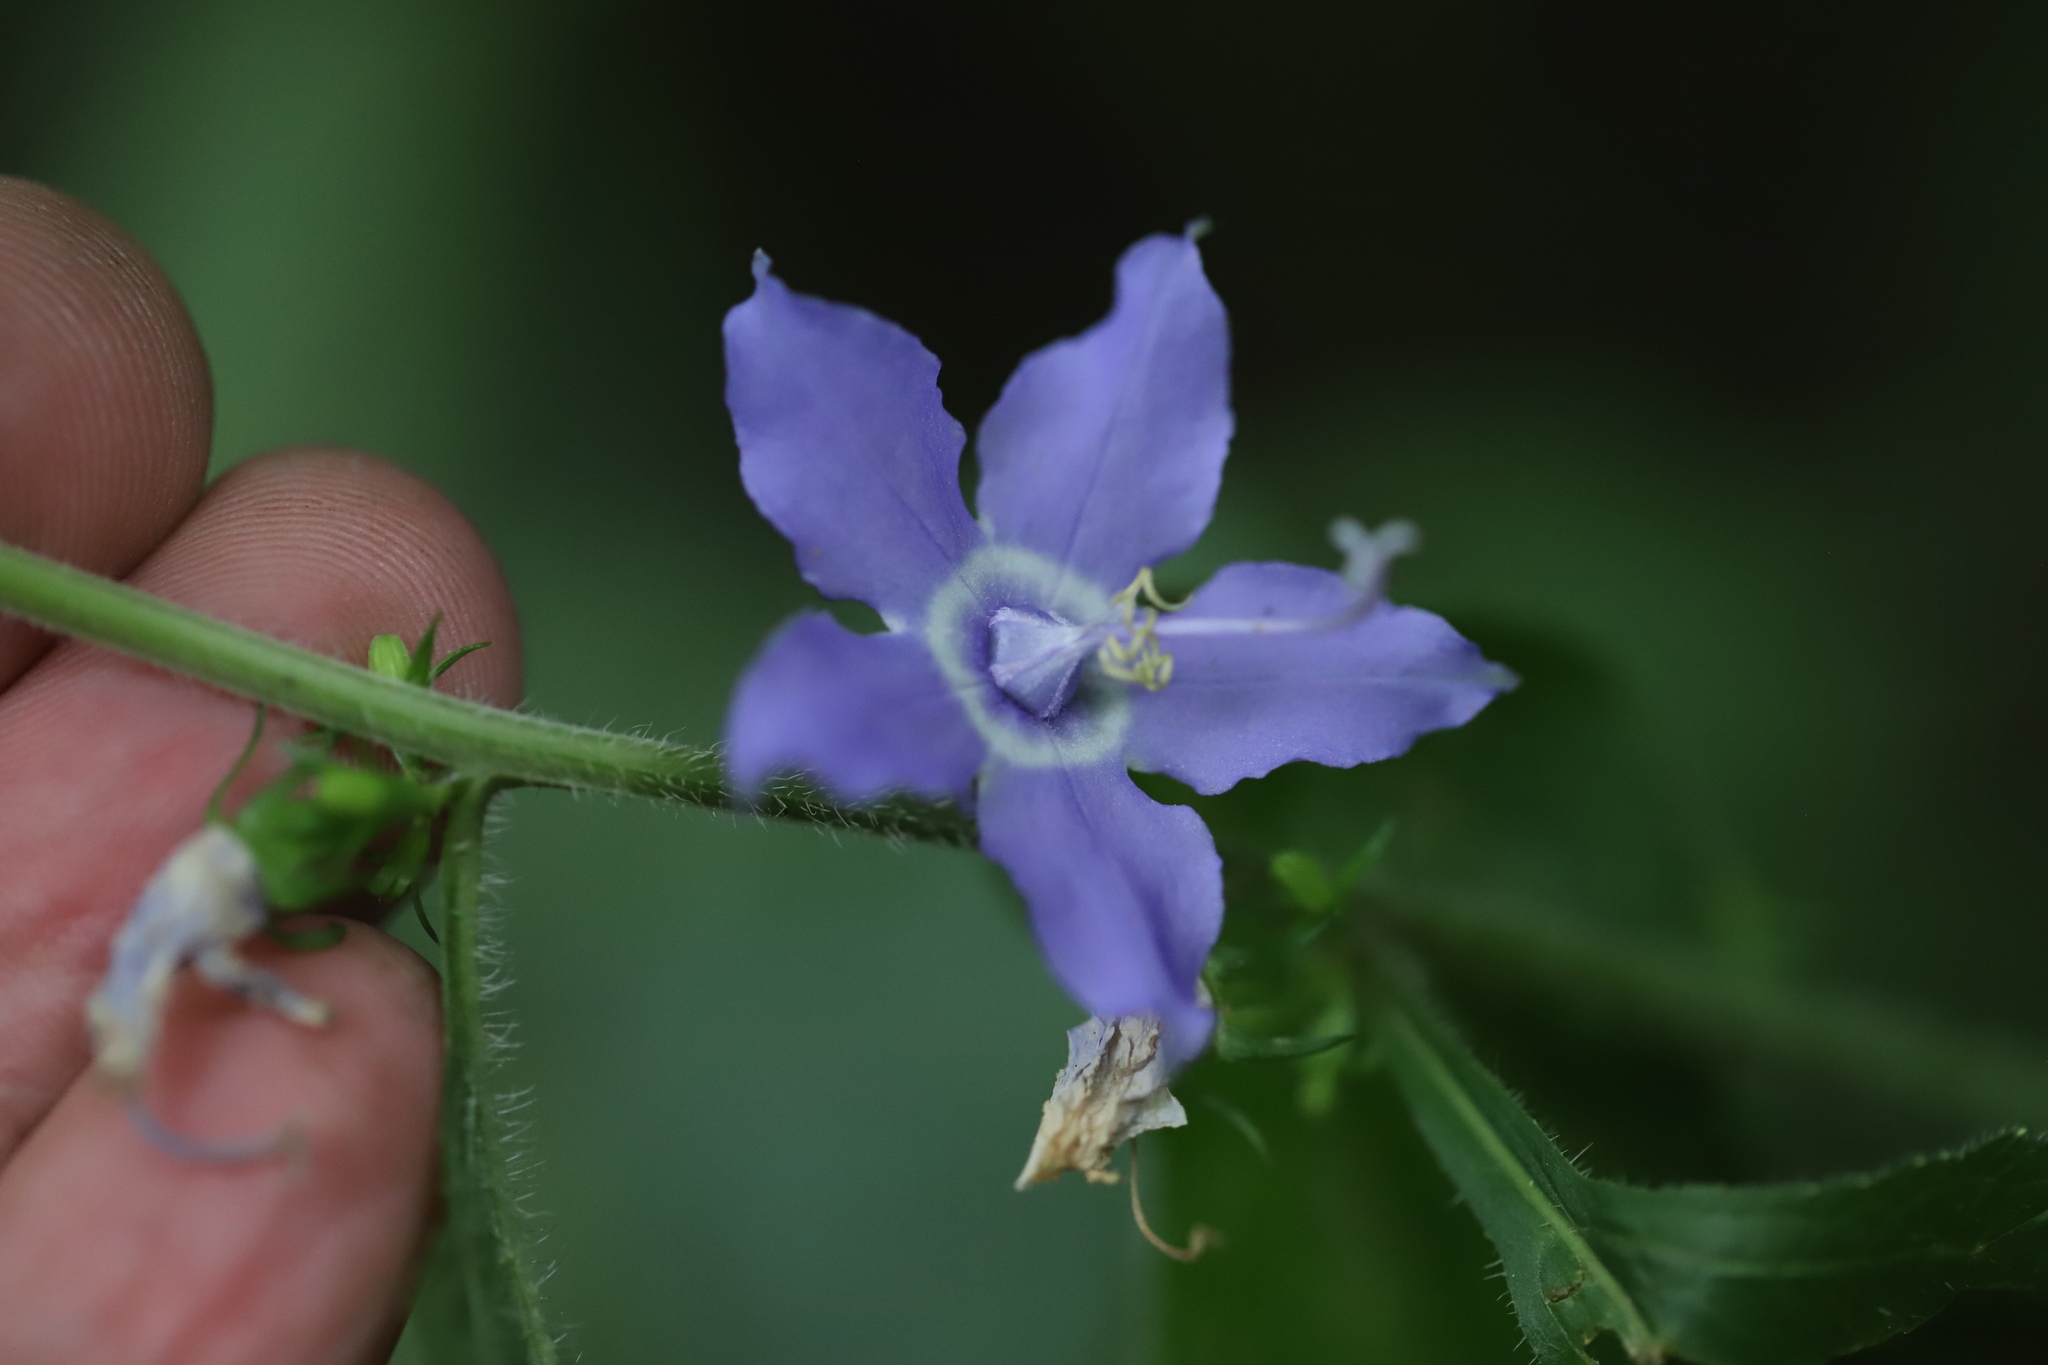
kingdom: Plantae
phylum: Tracheophyta
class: Magnoliopsida
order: Asterales
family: Campanulaceae
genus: Campanulastrum
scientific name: Campanulastrum americanum
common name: American bellflower
